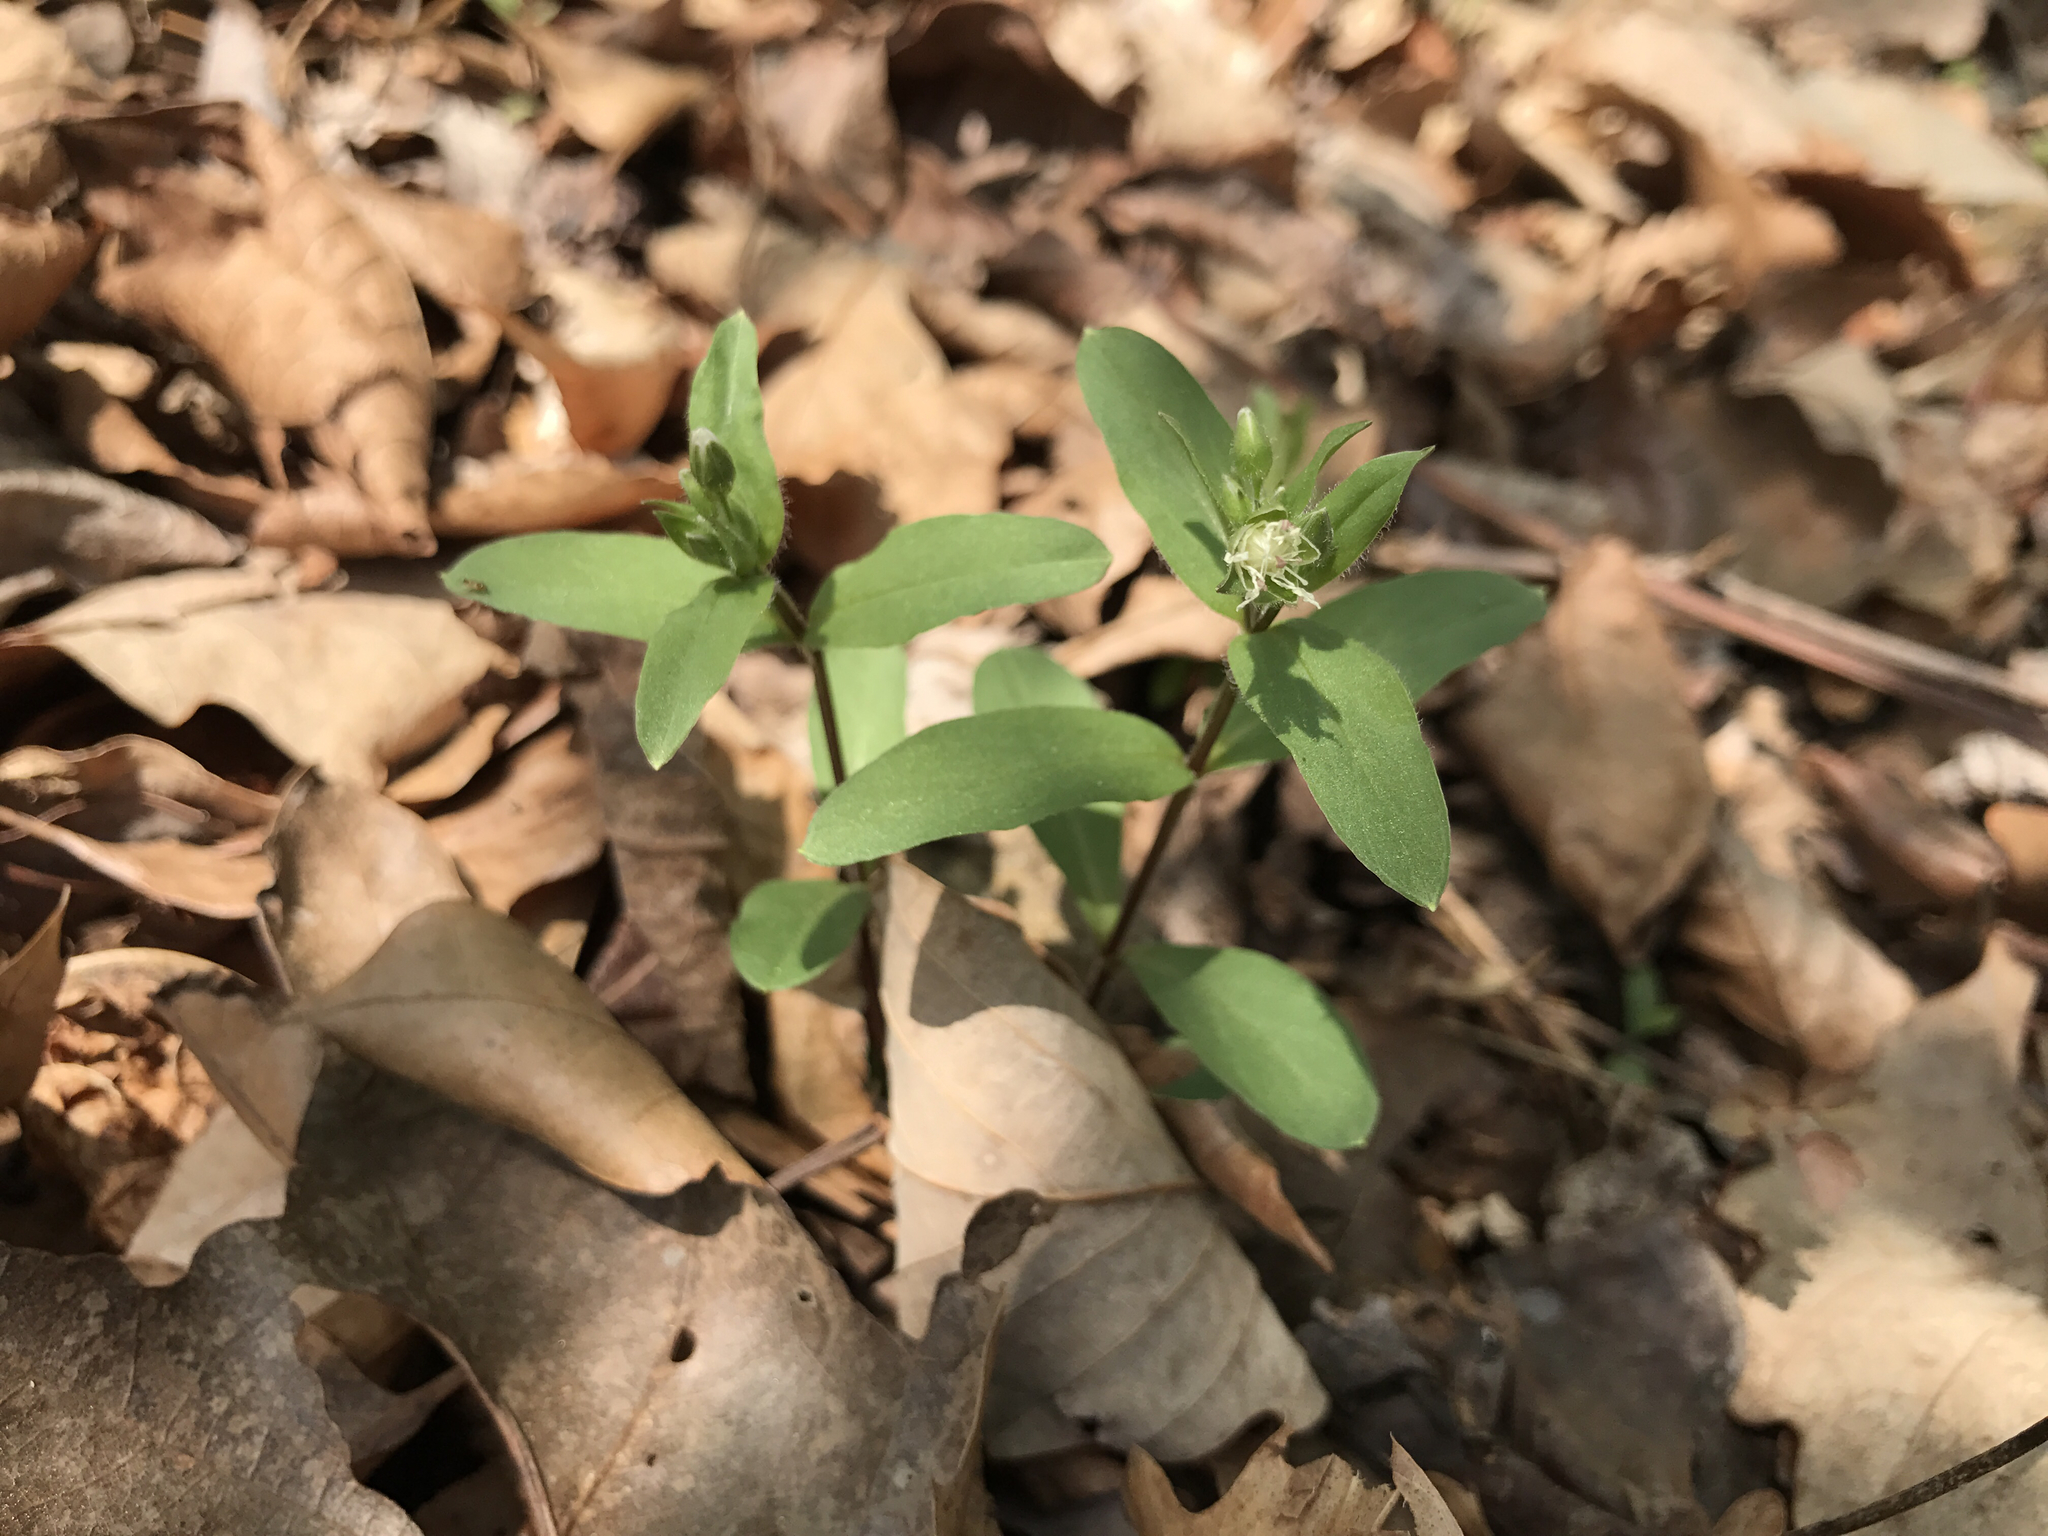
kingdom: Plantae
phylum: Tracheophyta
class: Magnoliopsida
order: Caryophyllales
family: Caryophyllaceae
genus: Stellaria
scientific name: Stellaria pubera
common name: Star chickweed
